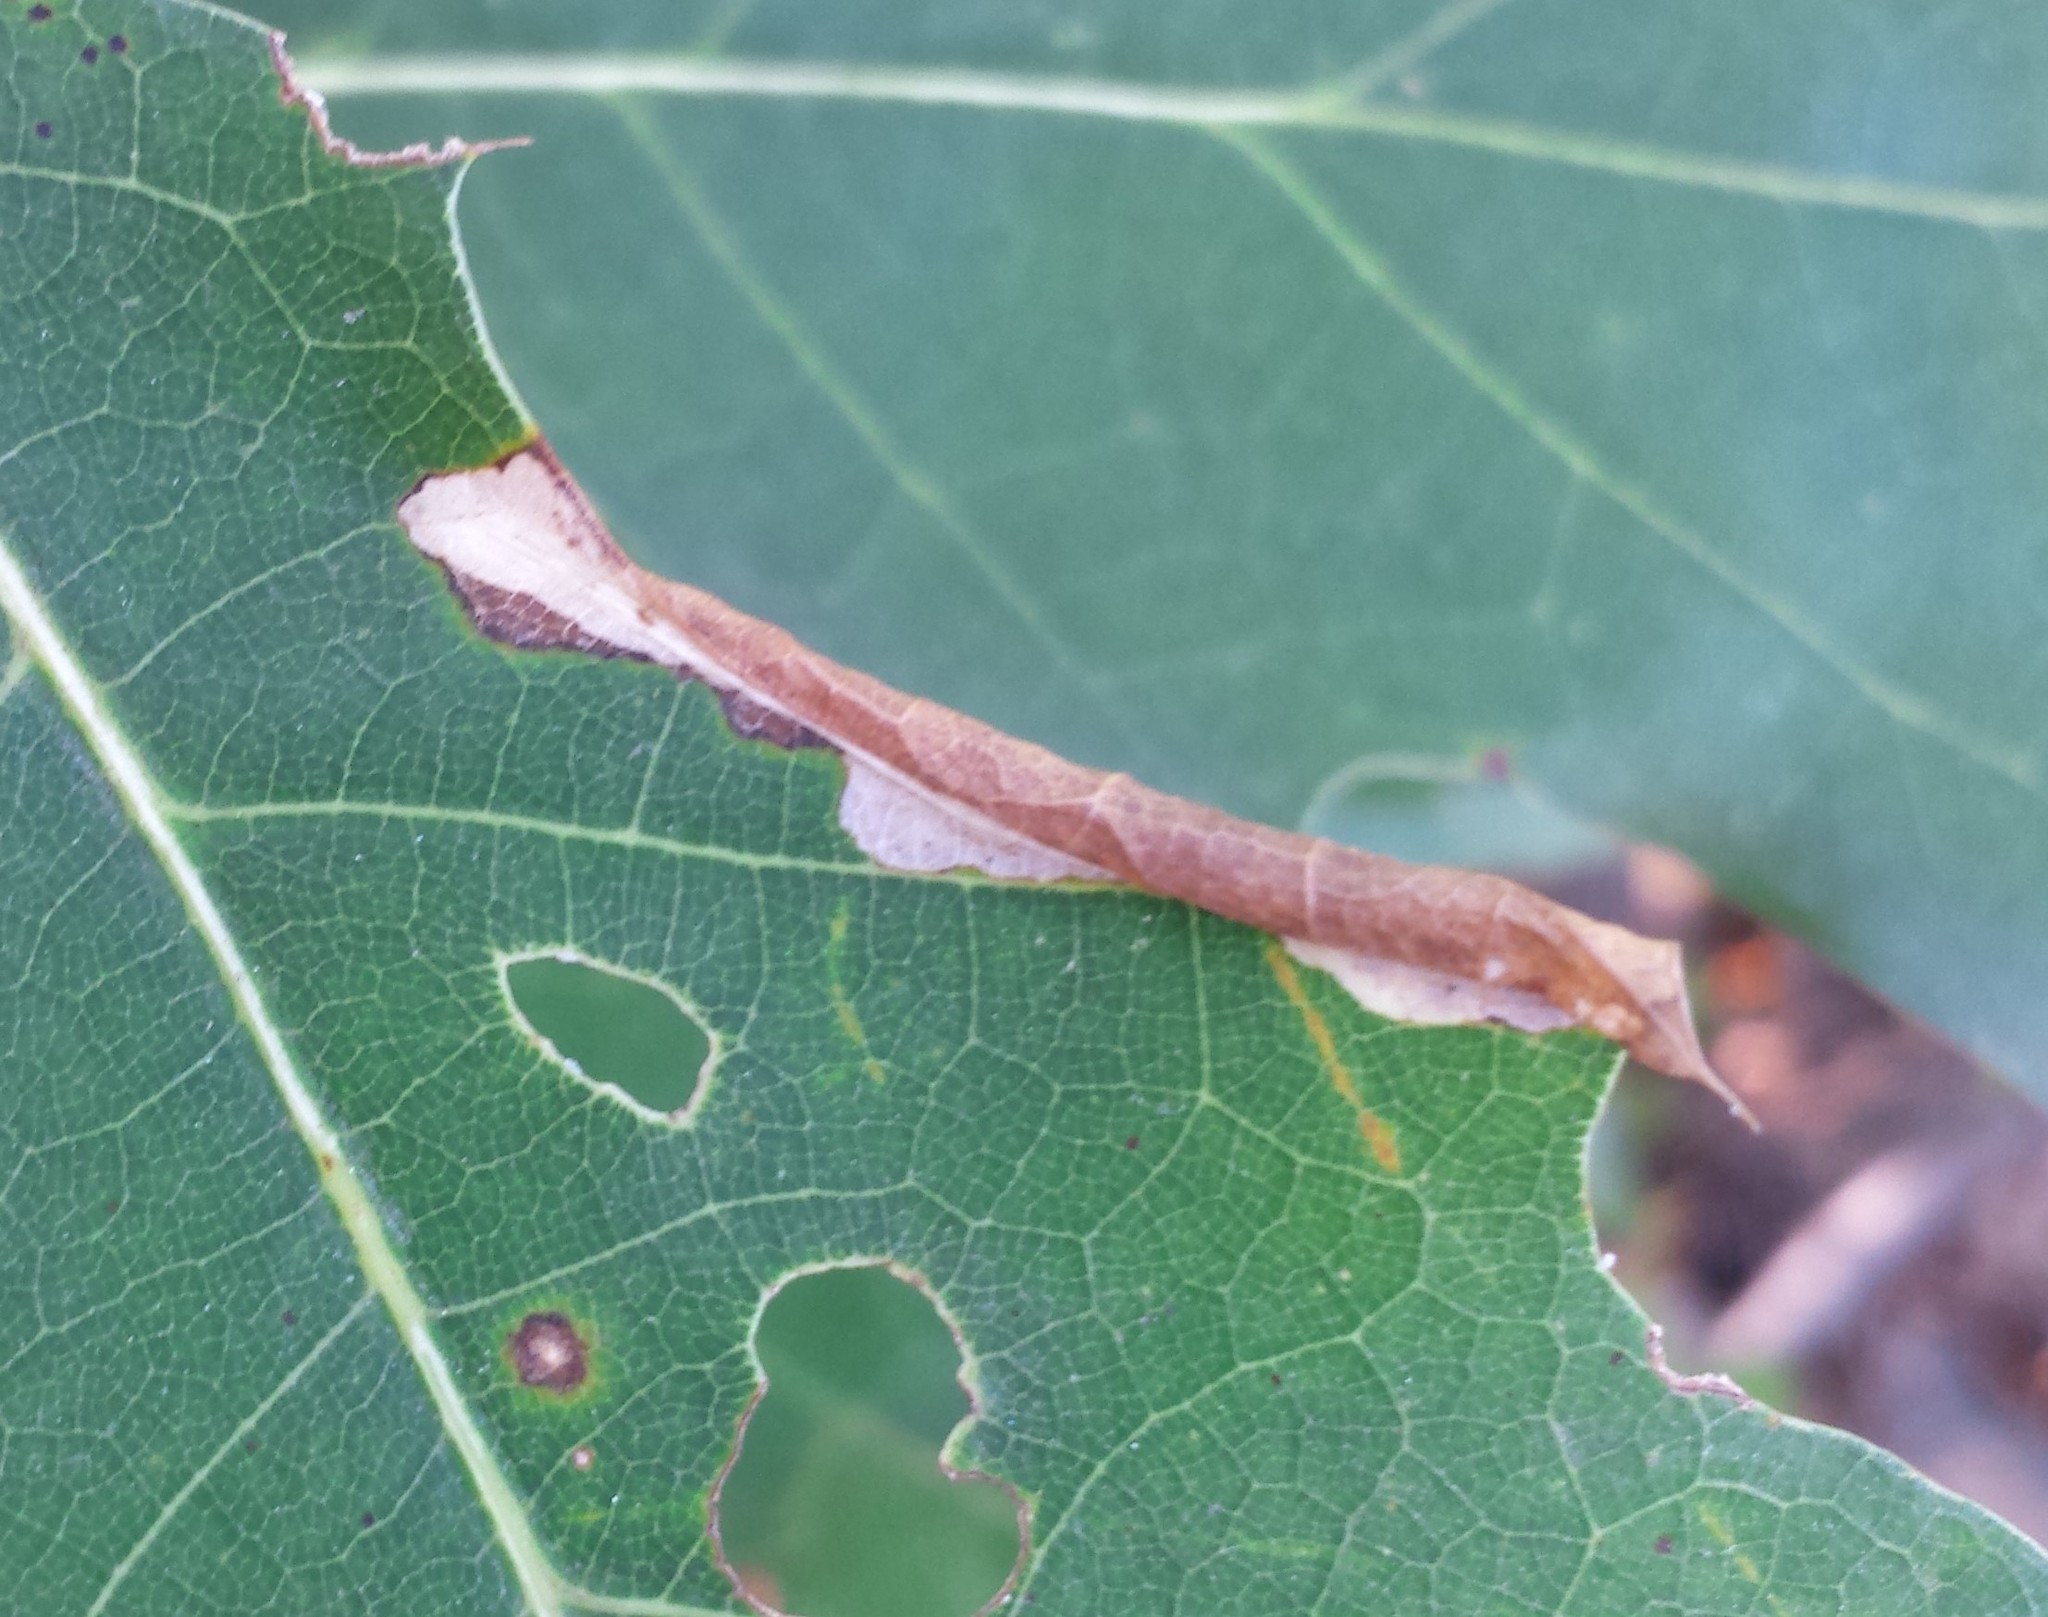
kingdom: Animalia
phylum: Arthropoda
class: Insecta
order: Lepidoptera
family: Tischeriidae
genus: Coptotriche
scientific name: Coptotriche citrinipennella
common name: The golden sweeper
